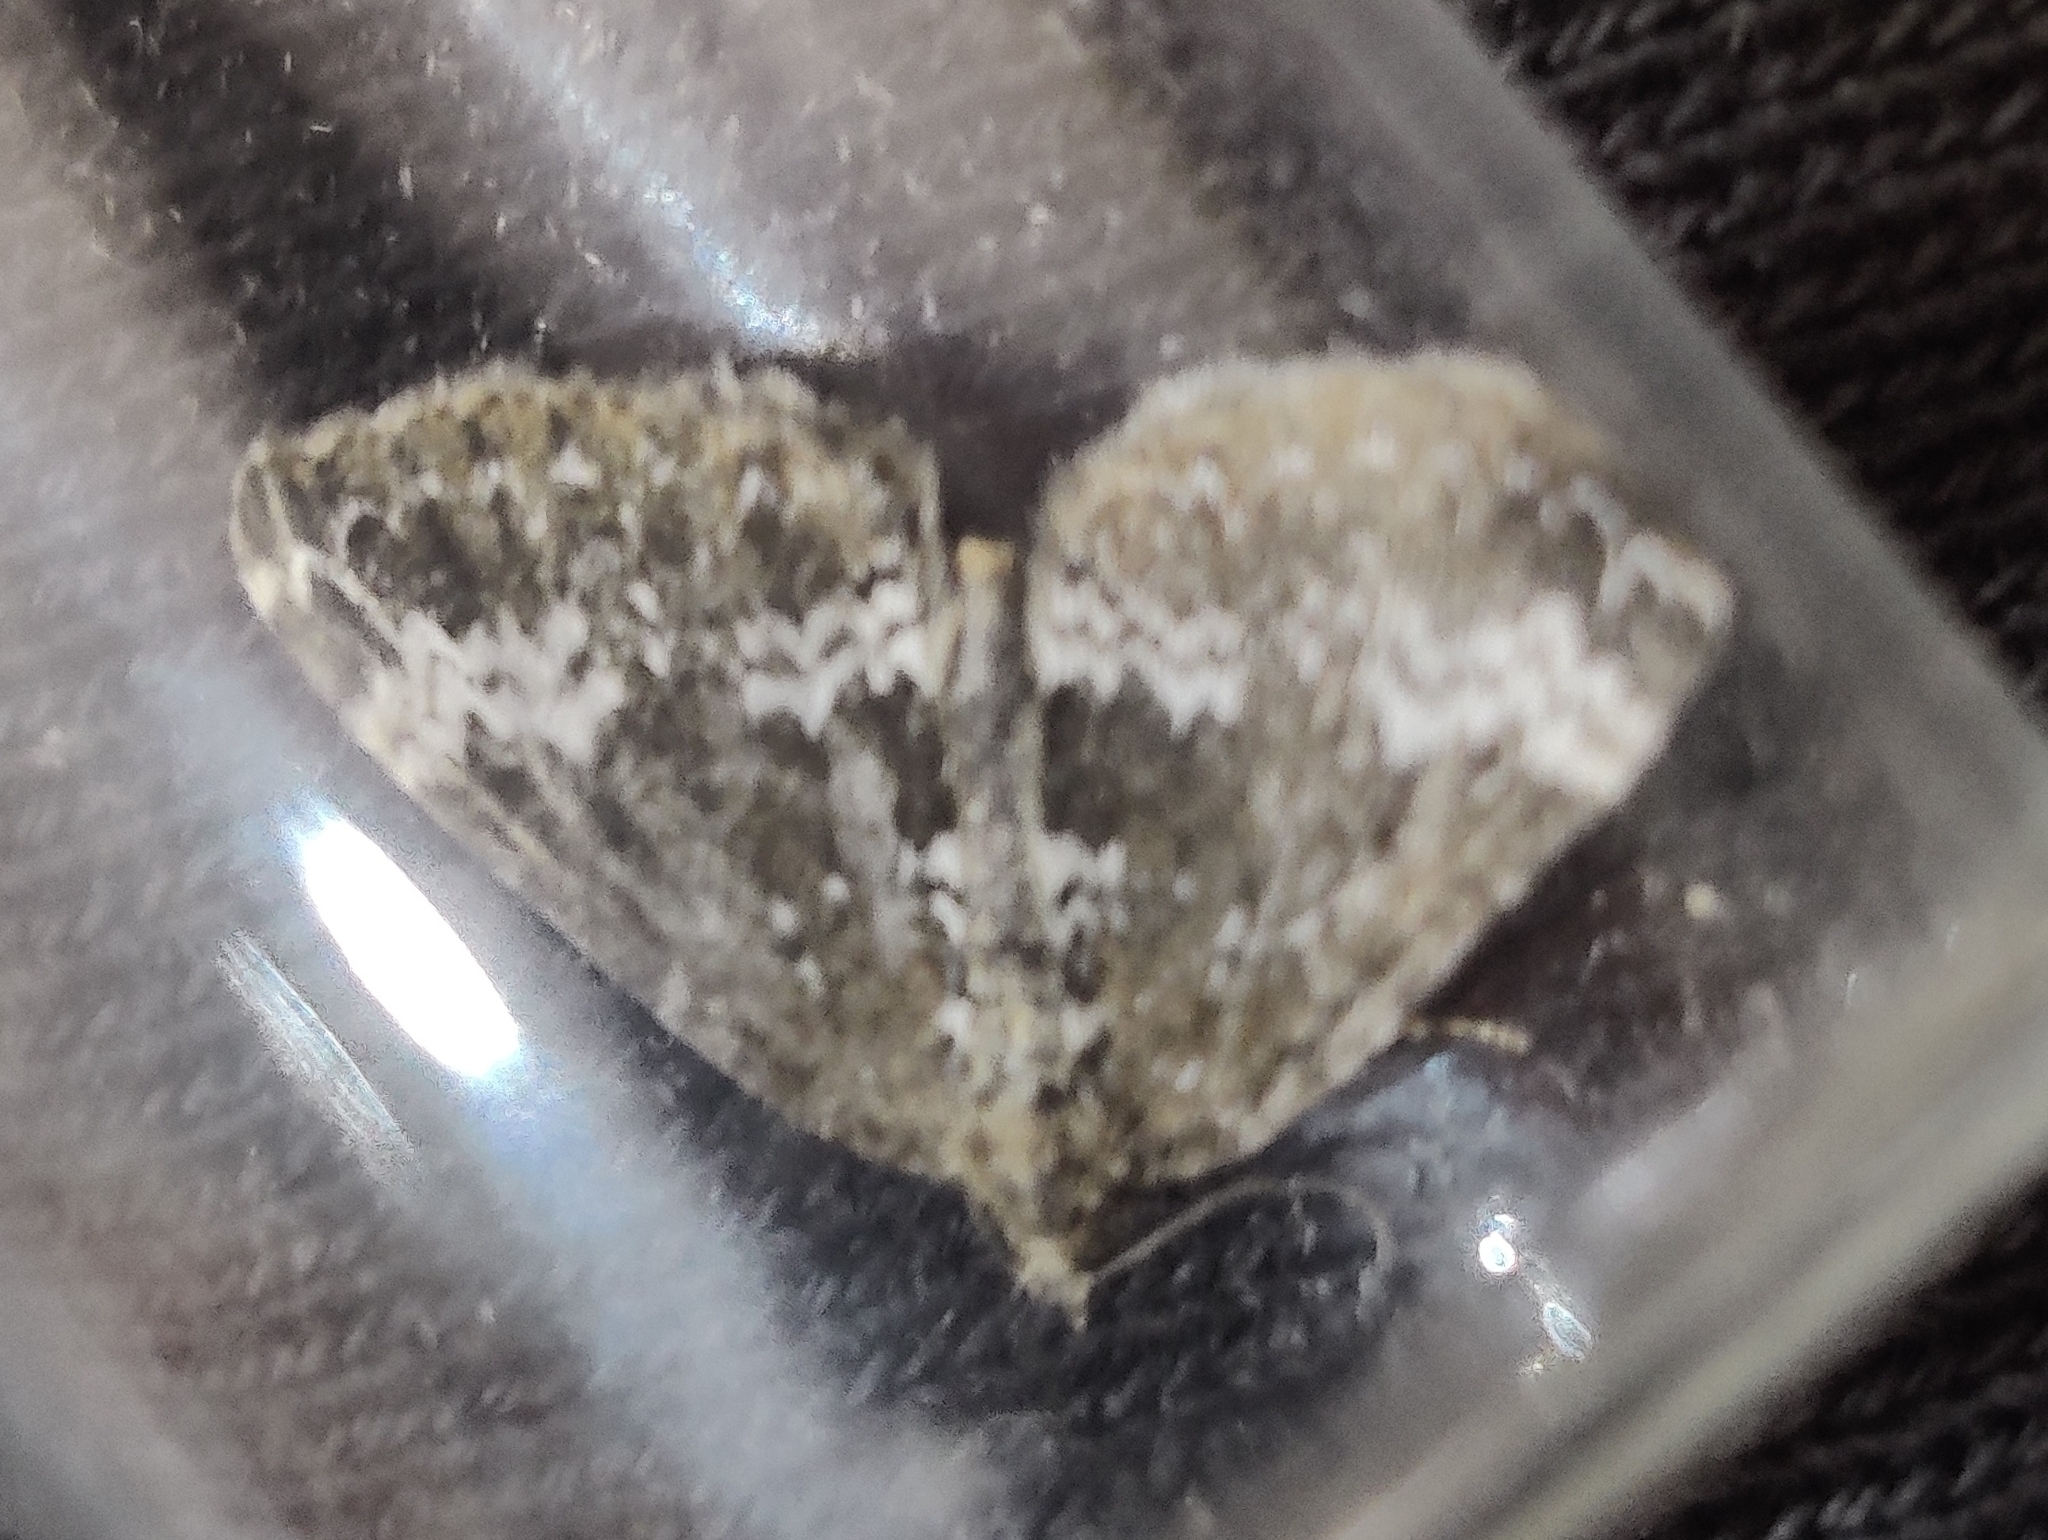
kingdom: Animalia
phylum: Arthropoda
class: Insecta
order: Lepidoptera
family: Geometridae
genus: Perizoma
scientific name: Perizoma alchemillata
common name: Small rivulet
